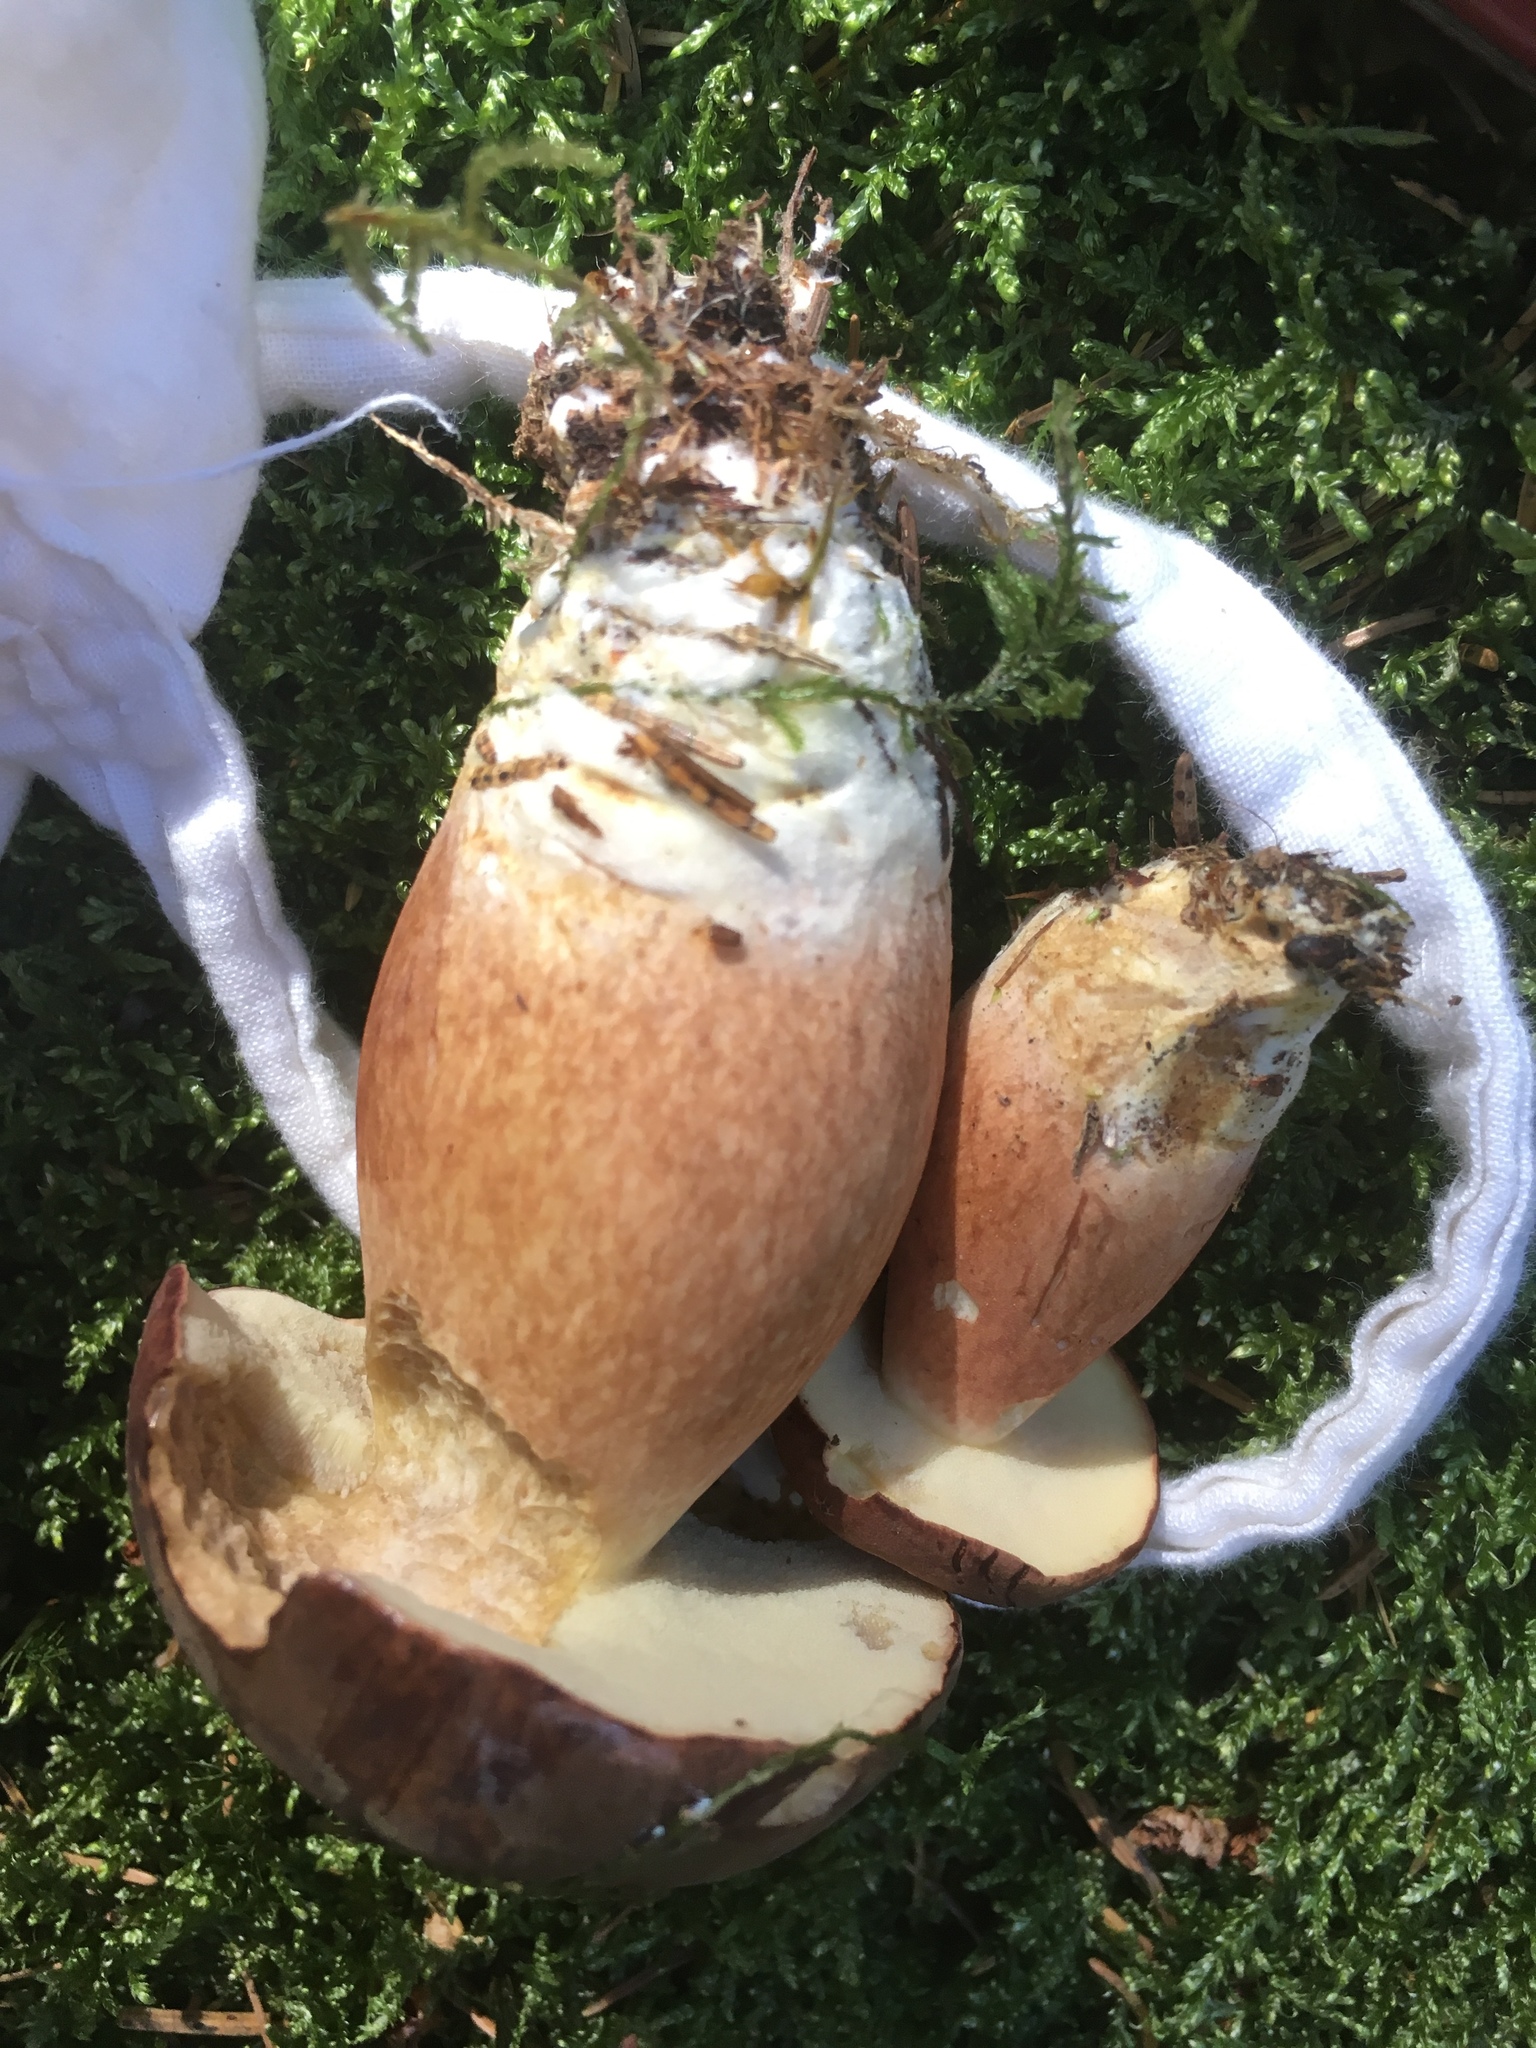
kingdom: Fungi
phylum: Basidiomycota
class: Agaricomycetes
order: Boletales
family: Boletaceae
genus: Imleria
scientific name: Imleria badia
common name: Bay bolete
